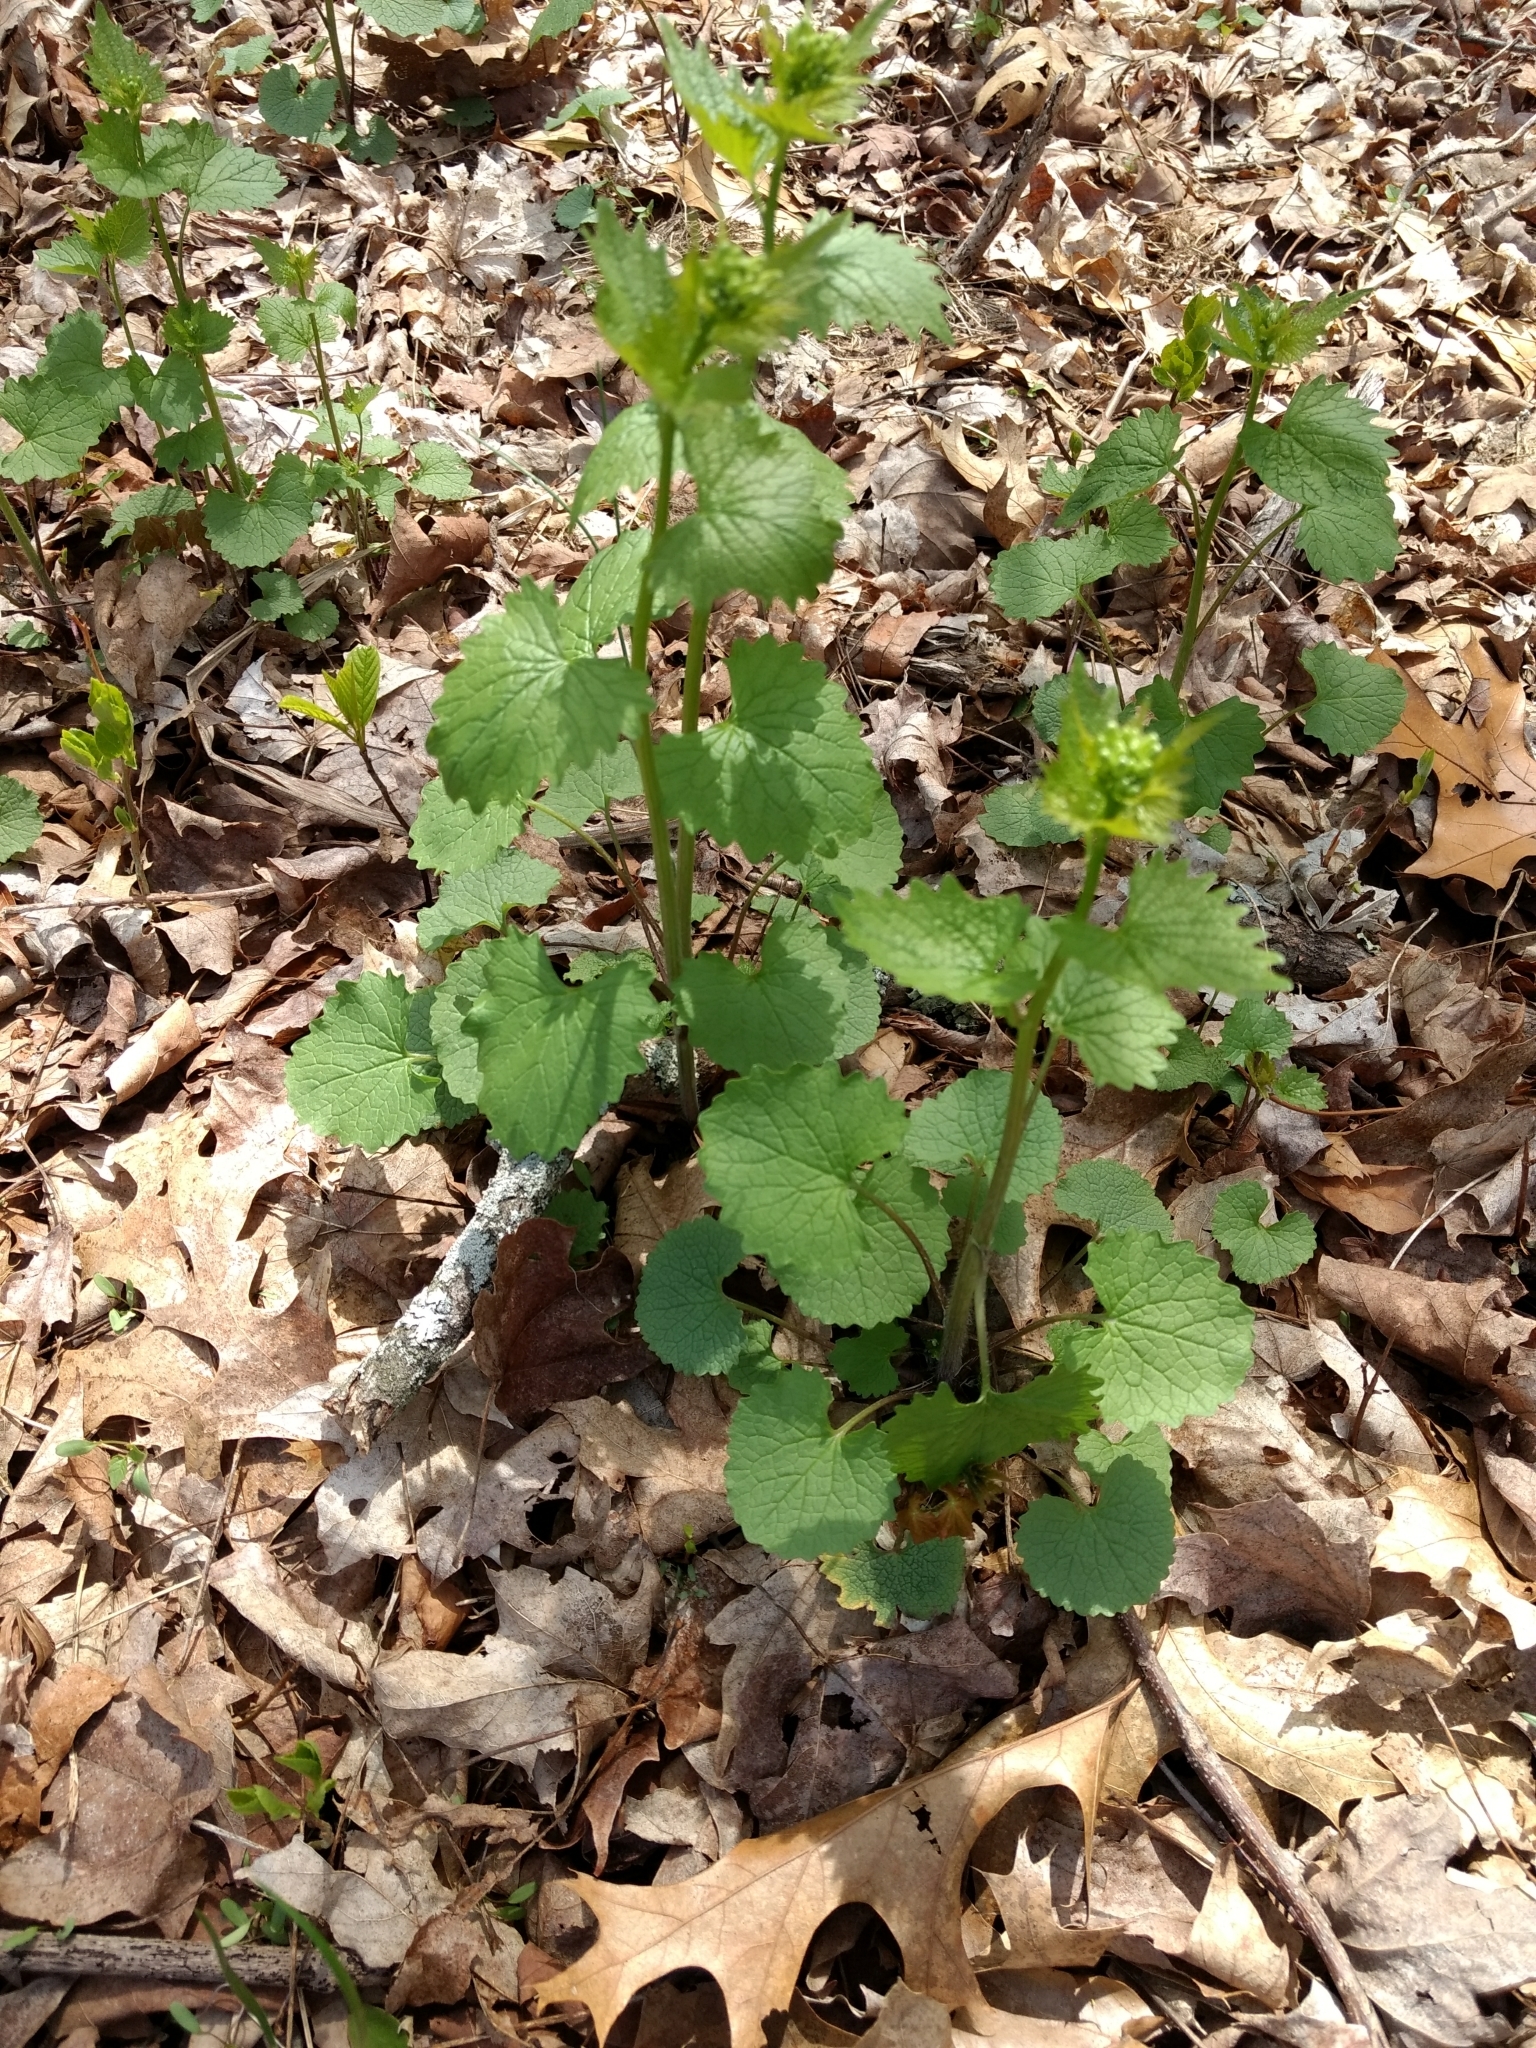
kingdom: Plantae
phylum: Tracheophyta
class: Magnoliopsida
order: Brassicales
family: Brassicaceae
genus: Alliaria
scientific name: Alliaria petiolata
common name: Garlic mustard
